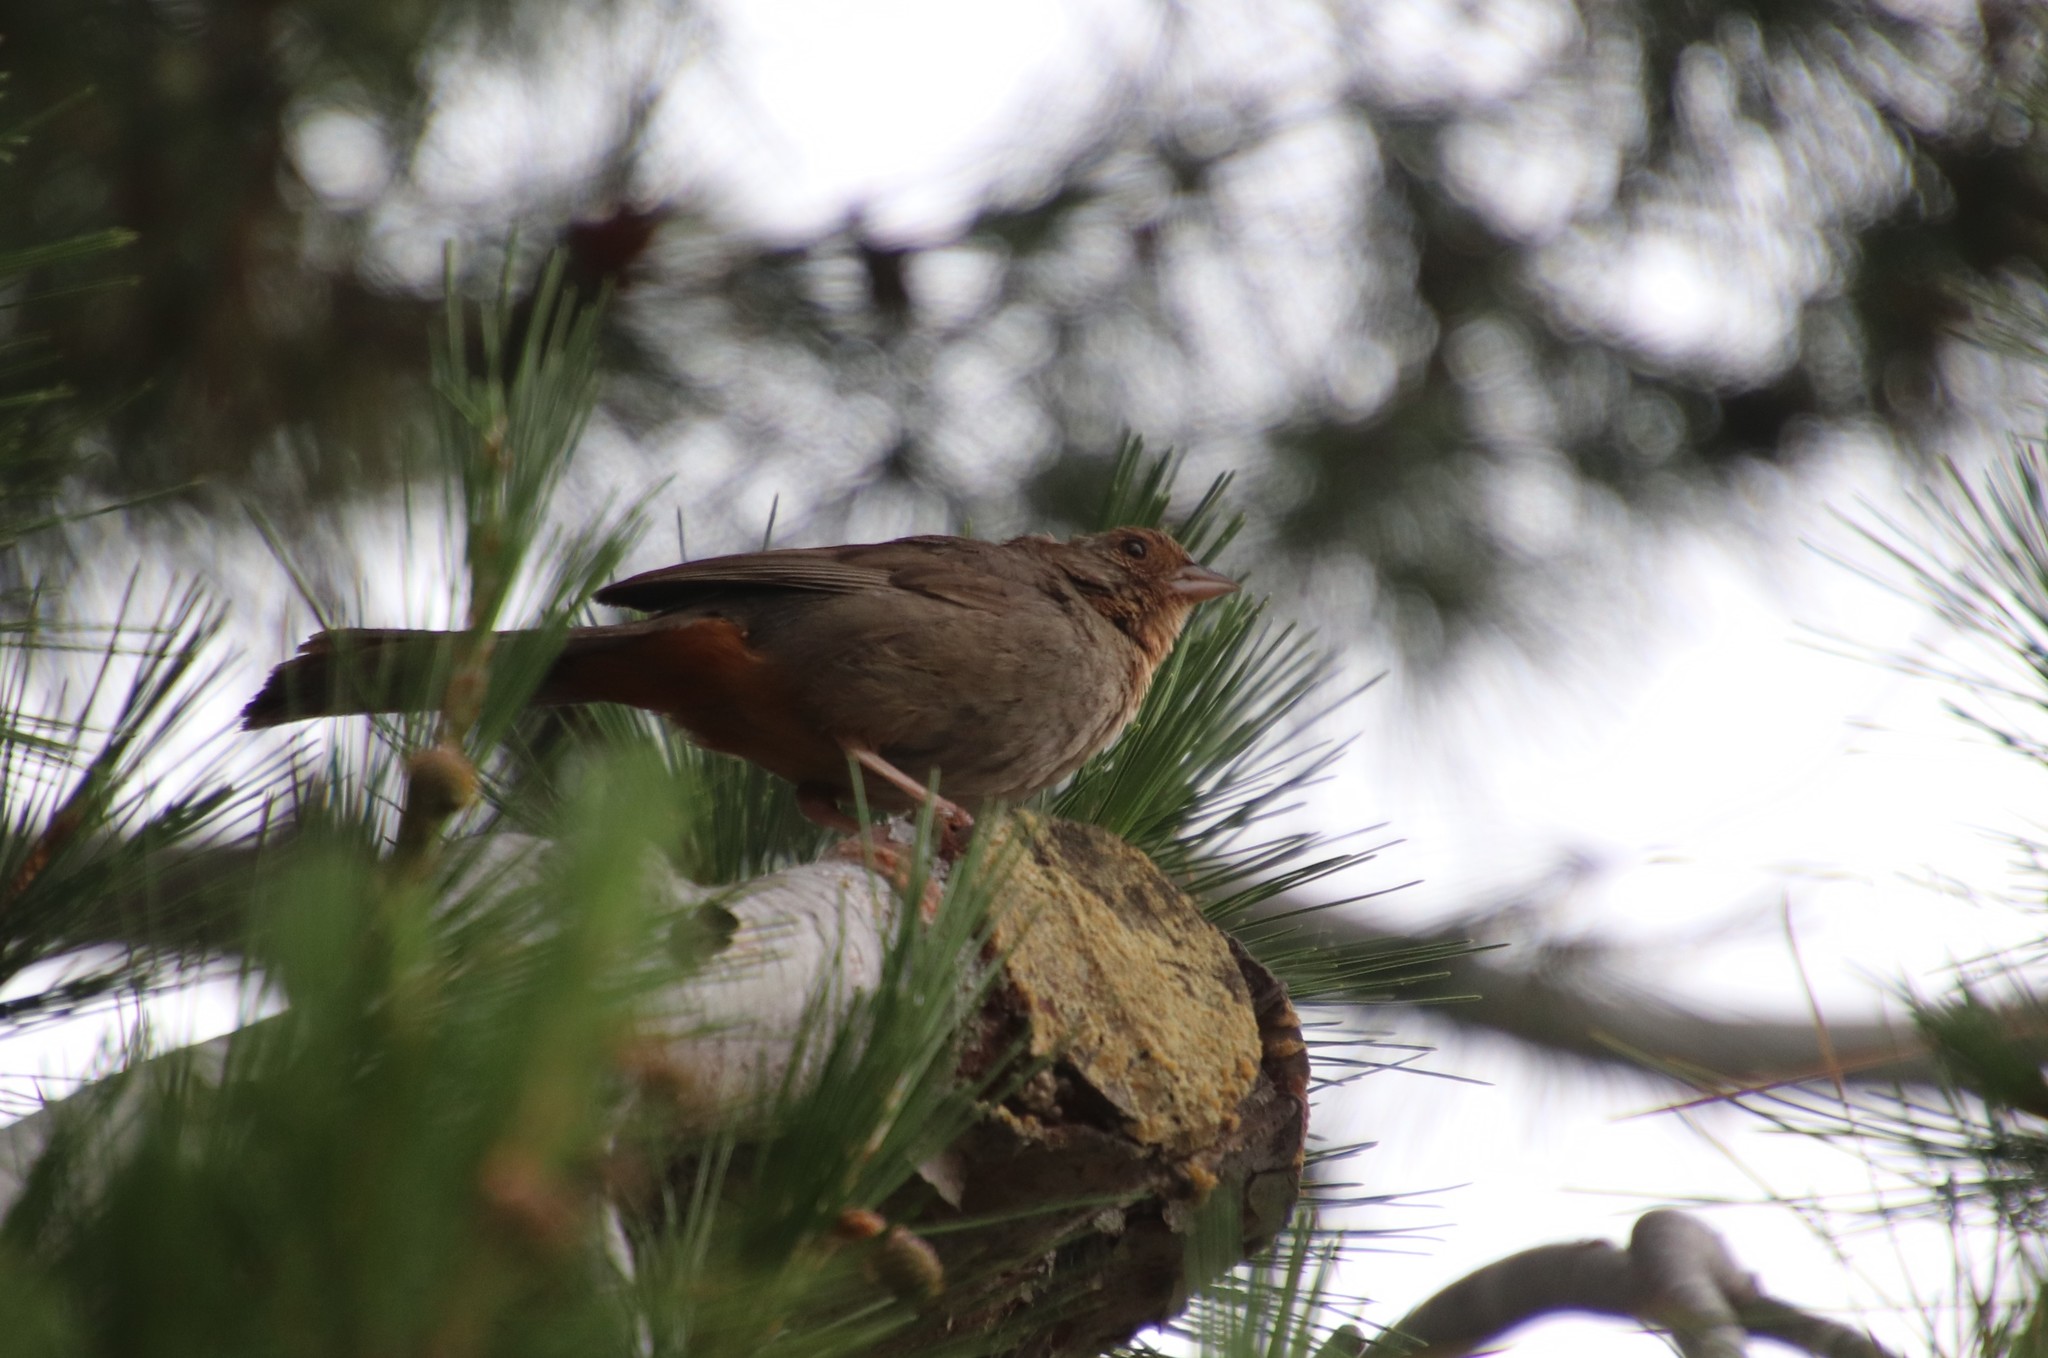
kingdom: Animalia
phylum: Chordata
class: Aves
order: Passeriformes
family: Passerellidae
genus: Melozone
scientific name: Melozone crissalis
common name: California towhee
